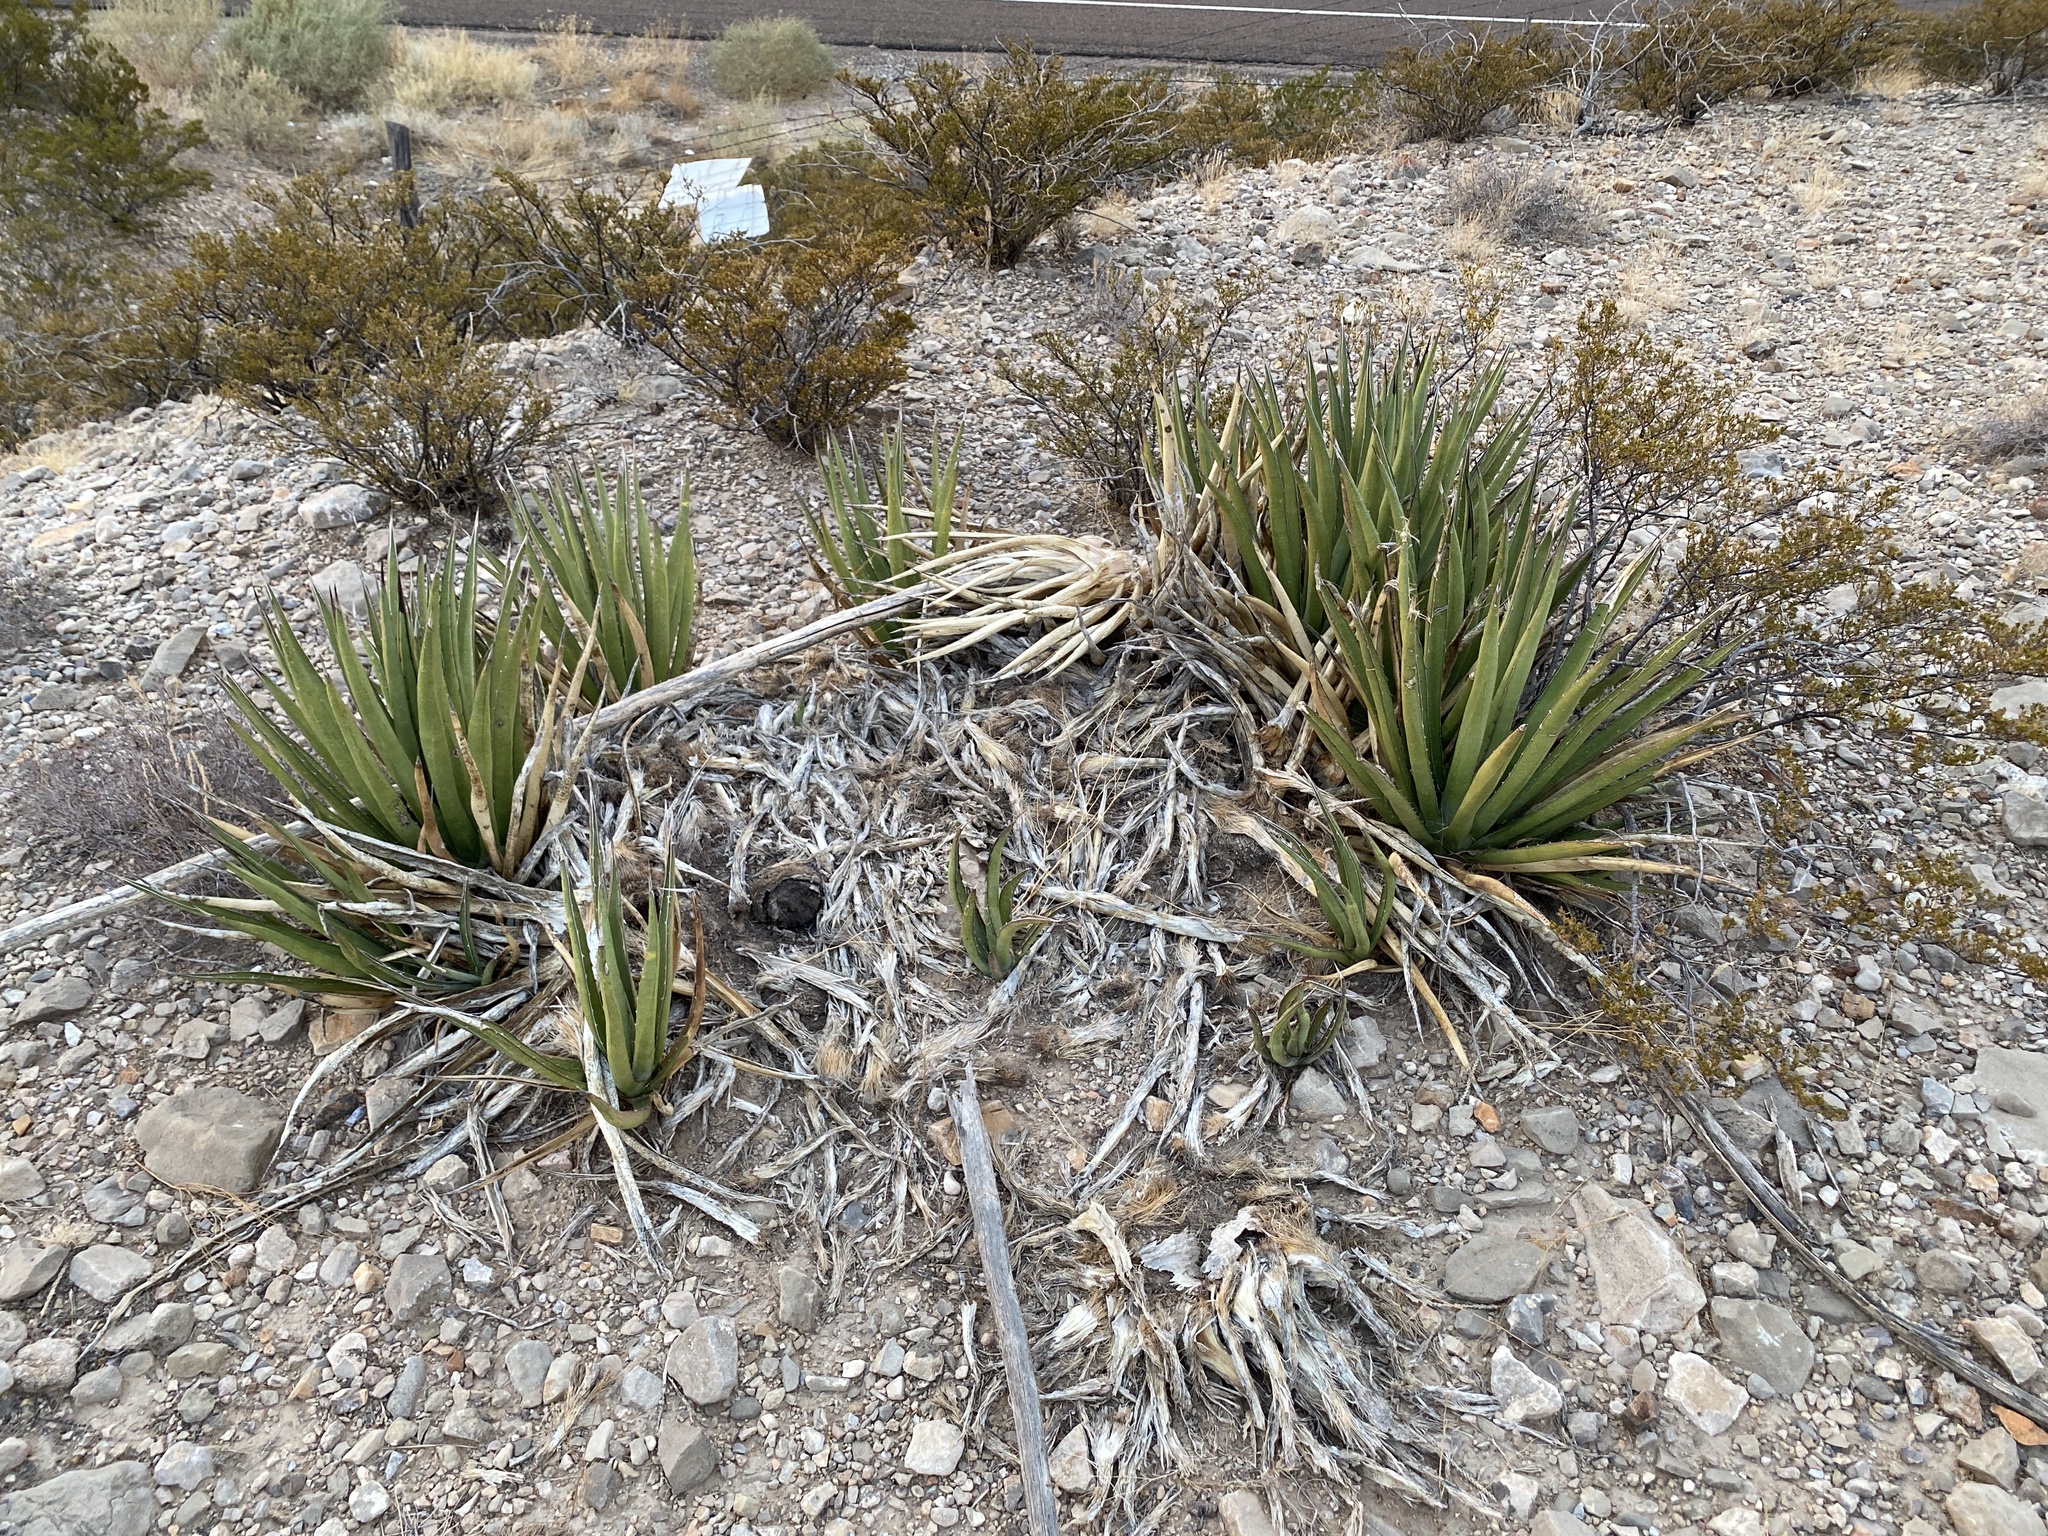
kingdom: Plantae
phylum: Tracheophyta
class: Liliopsida
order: Asparagales
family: Asparagaceae
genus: Agave
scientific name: Agave lechuguilla
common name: Lecheguilla agave
